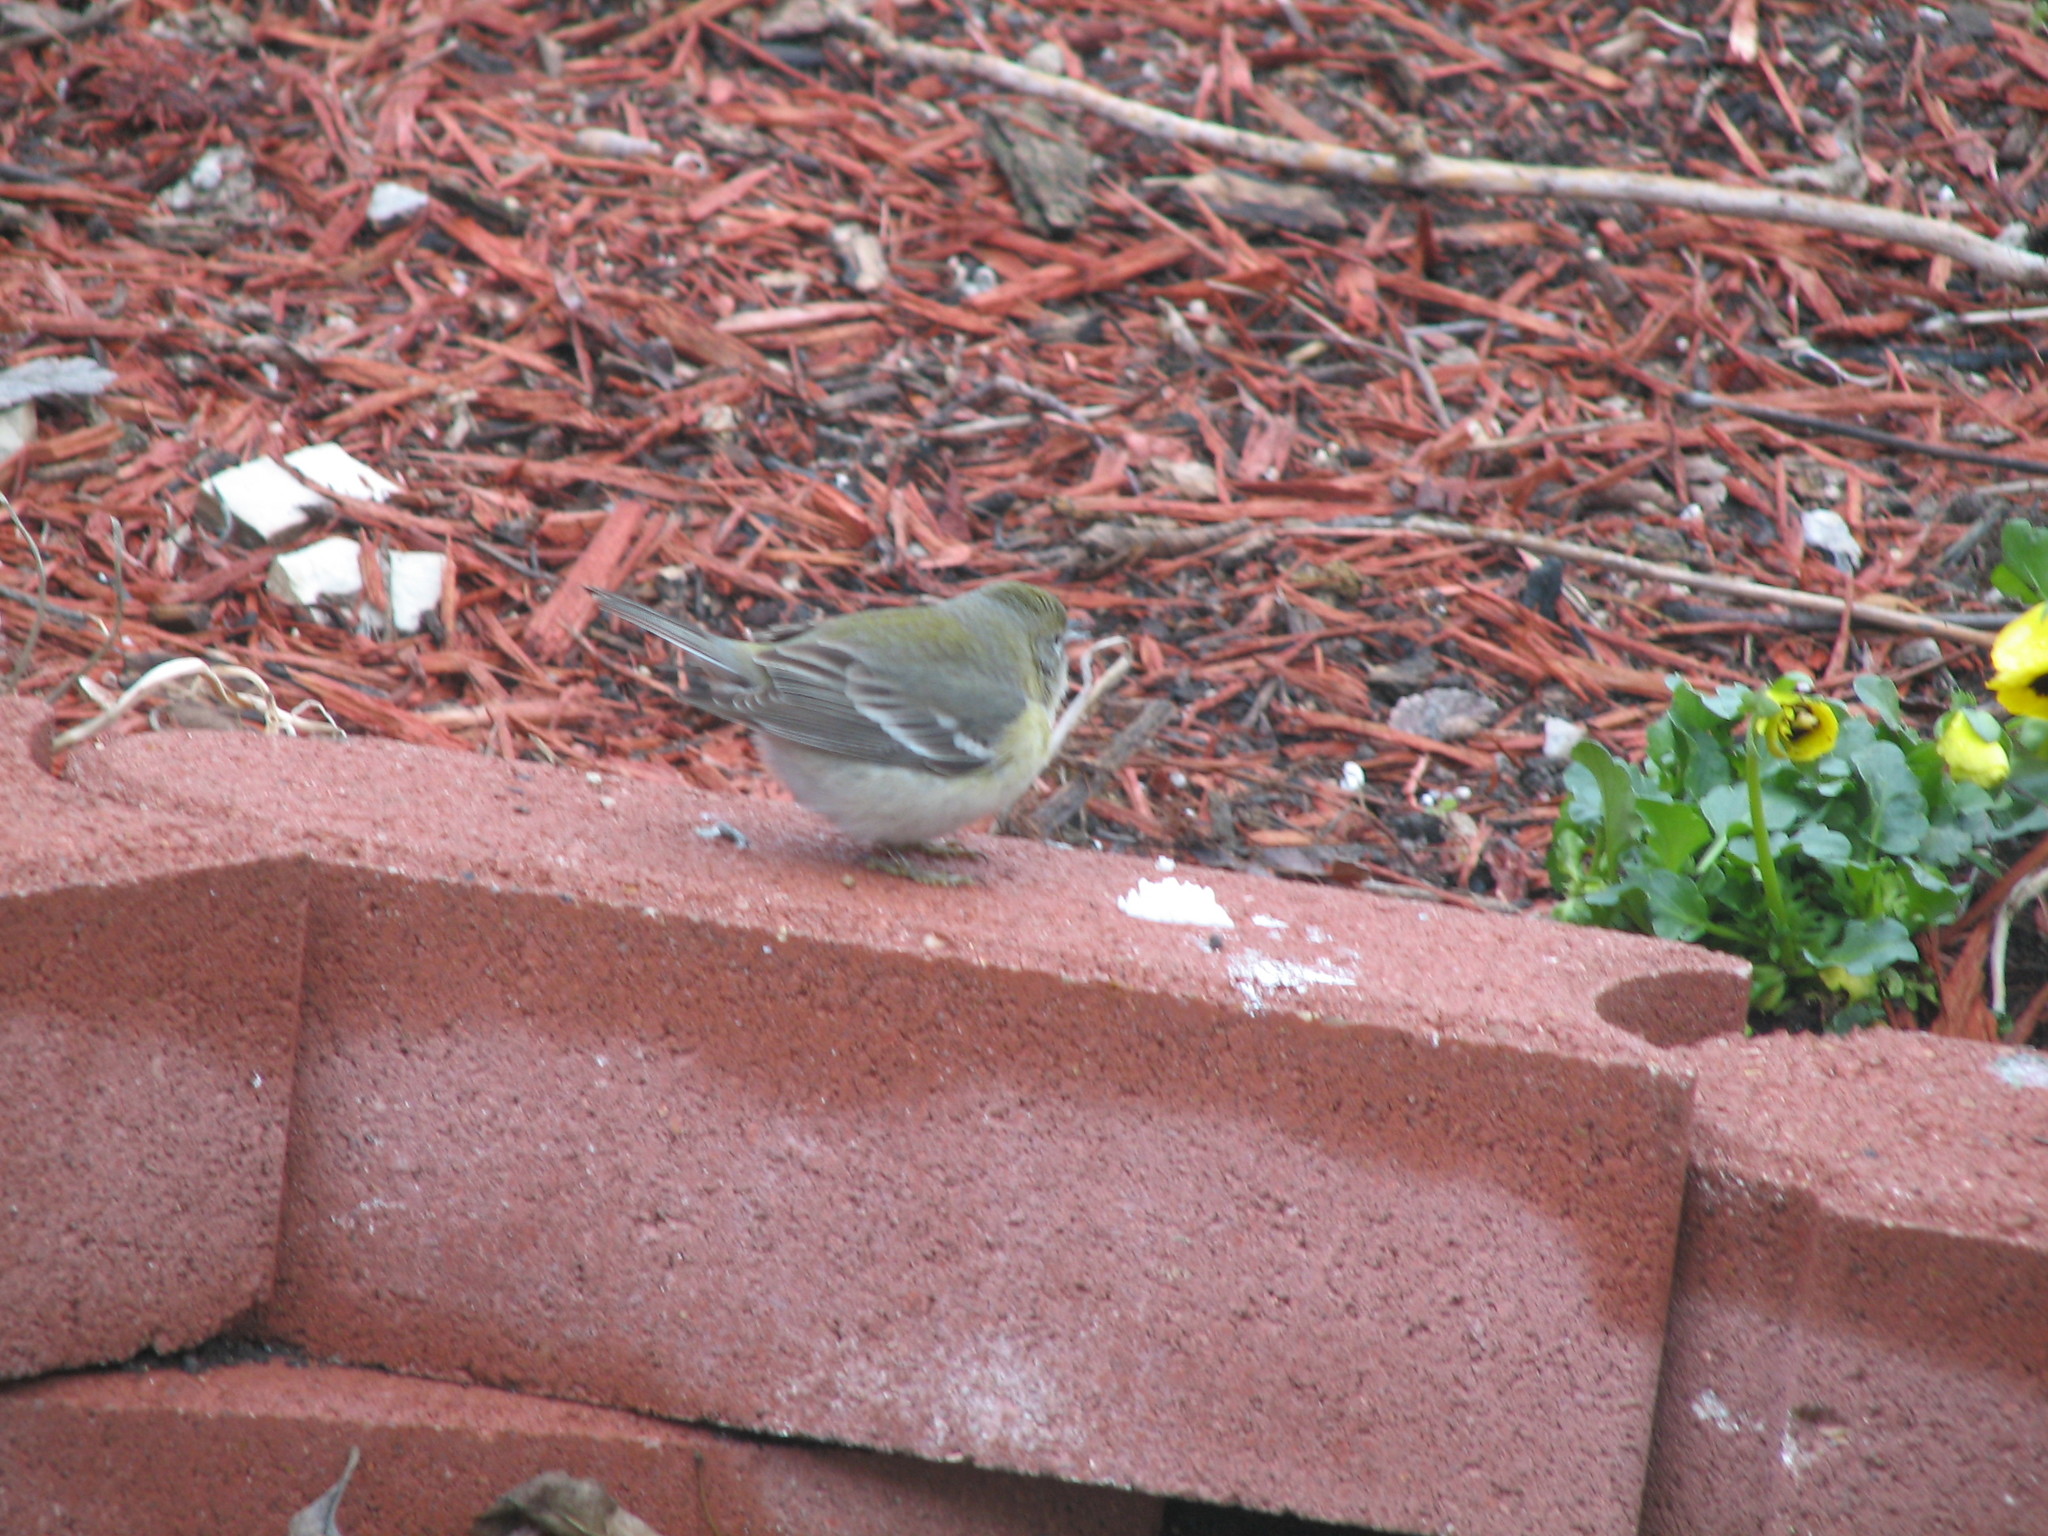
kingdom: Animalia
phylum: Chordata
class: Aves
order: Passeriformes
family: Parulidae
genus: Setophaga
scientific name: Setophaga pinus
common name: Pine warbler
